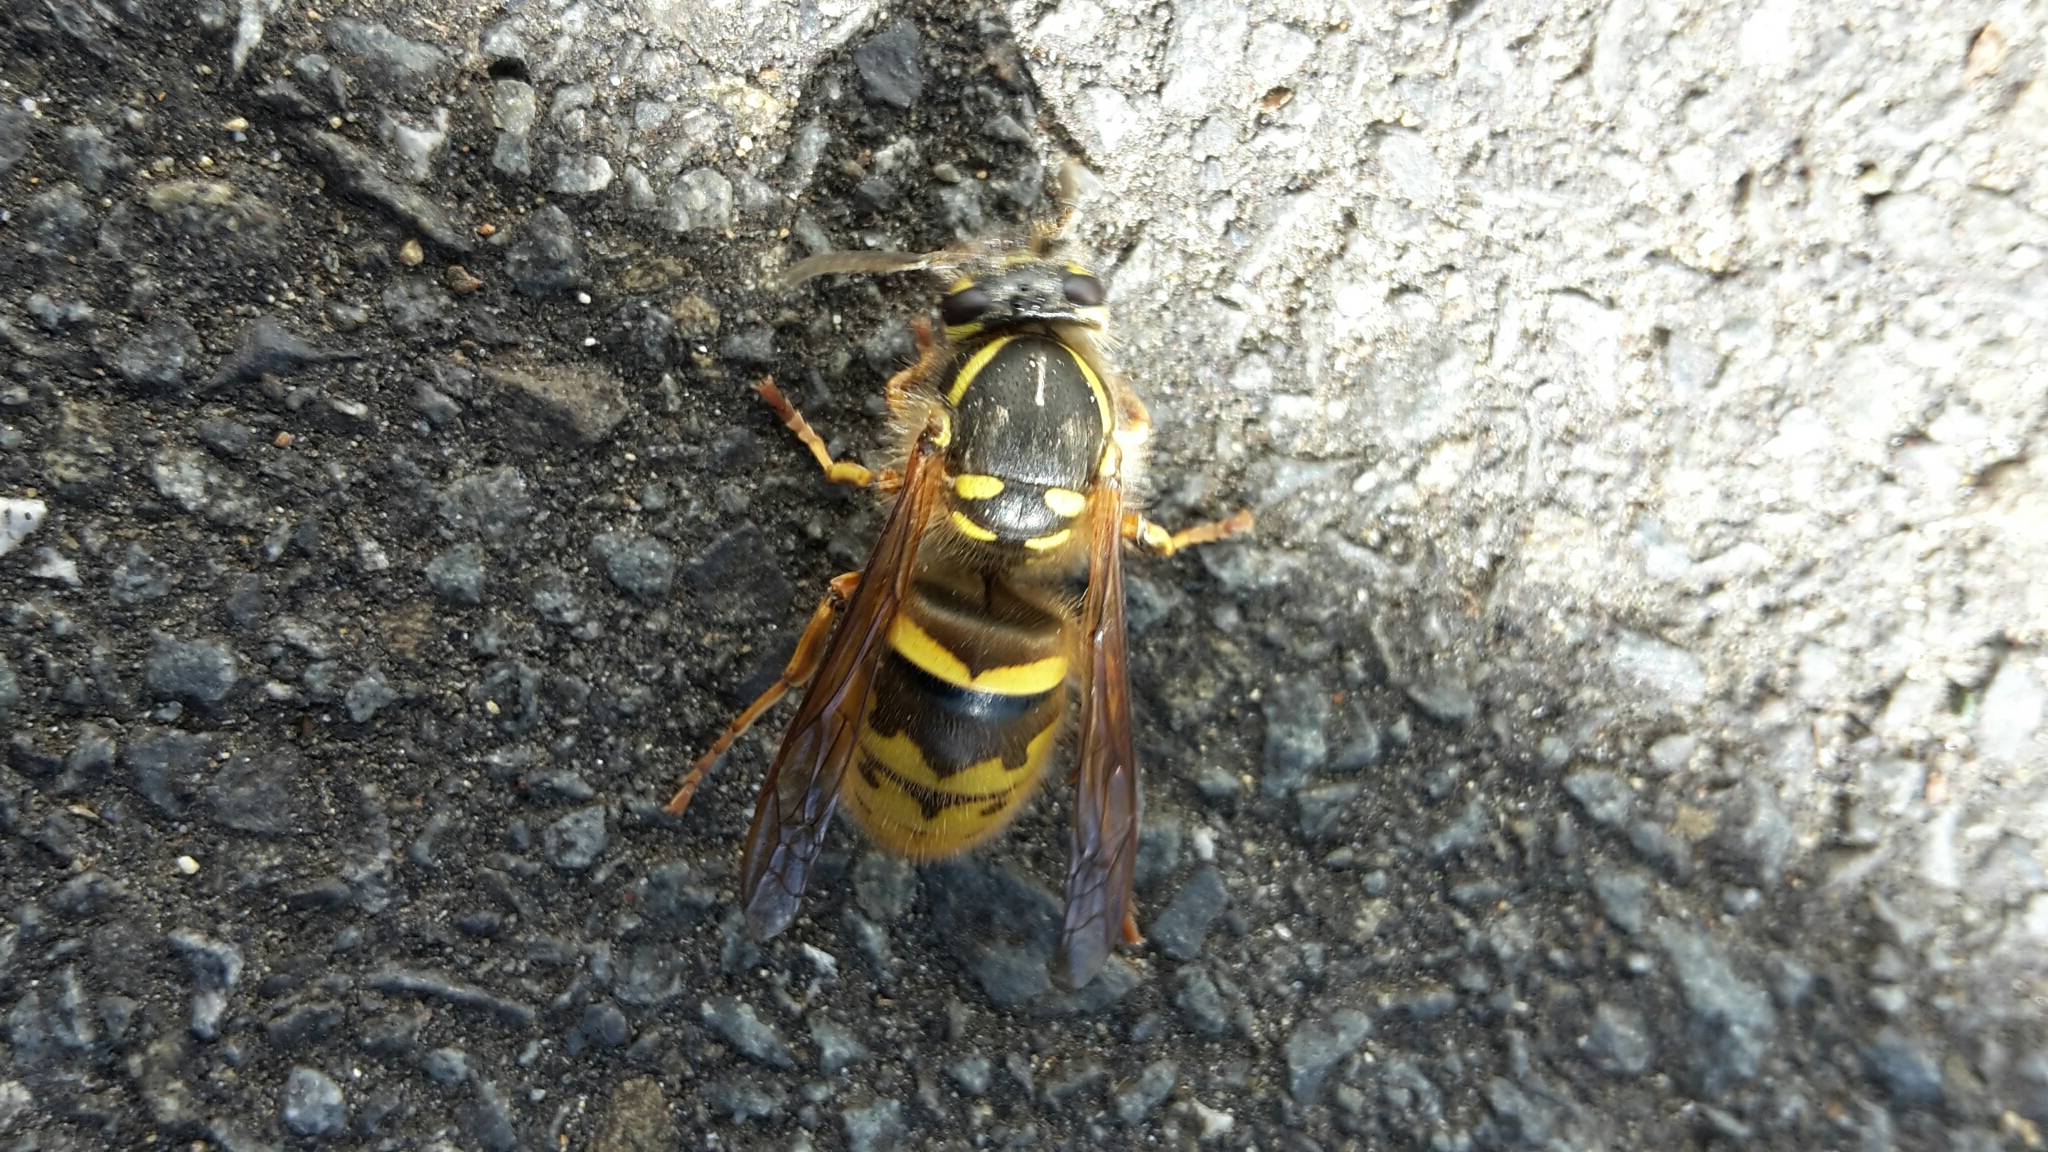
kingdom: Animalia
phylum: Arthropoda
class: Insecta
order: Hymenoptera
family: Vespidae
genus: Vespula
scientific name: Vespula vulgaris
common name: Common wasp
